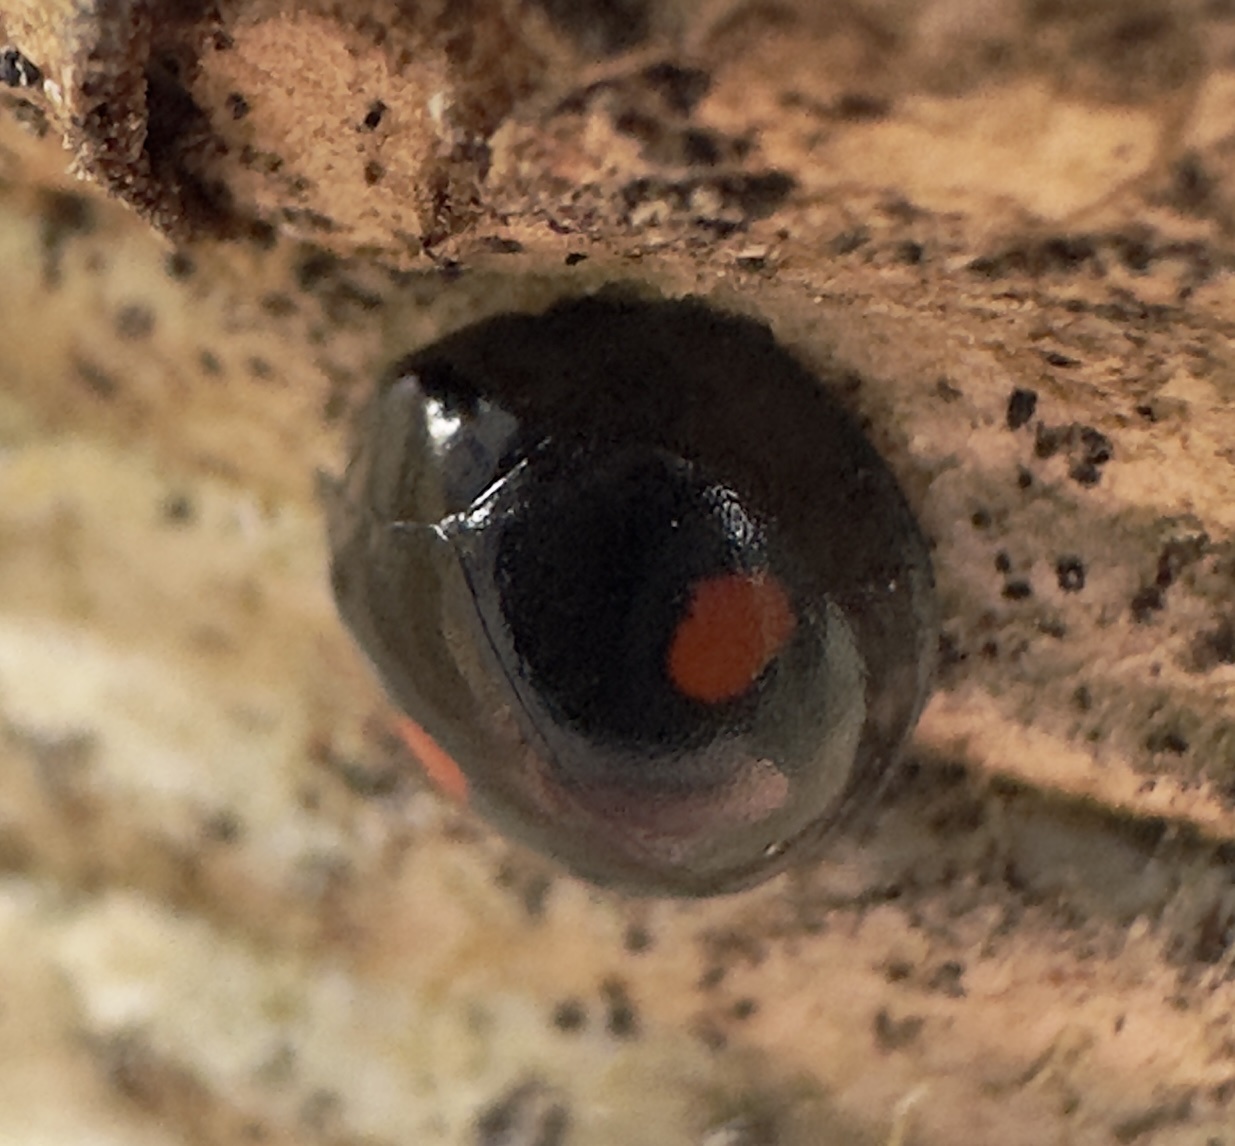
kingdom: Animalia
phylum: Arthropoda
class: Insecta
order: Coleoptera
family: Coccinellidae
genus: Chilocorus
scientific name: Chilocorus stigma
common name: Twicestabbed lady beetle
